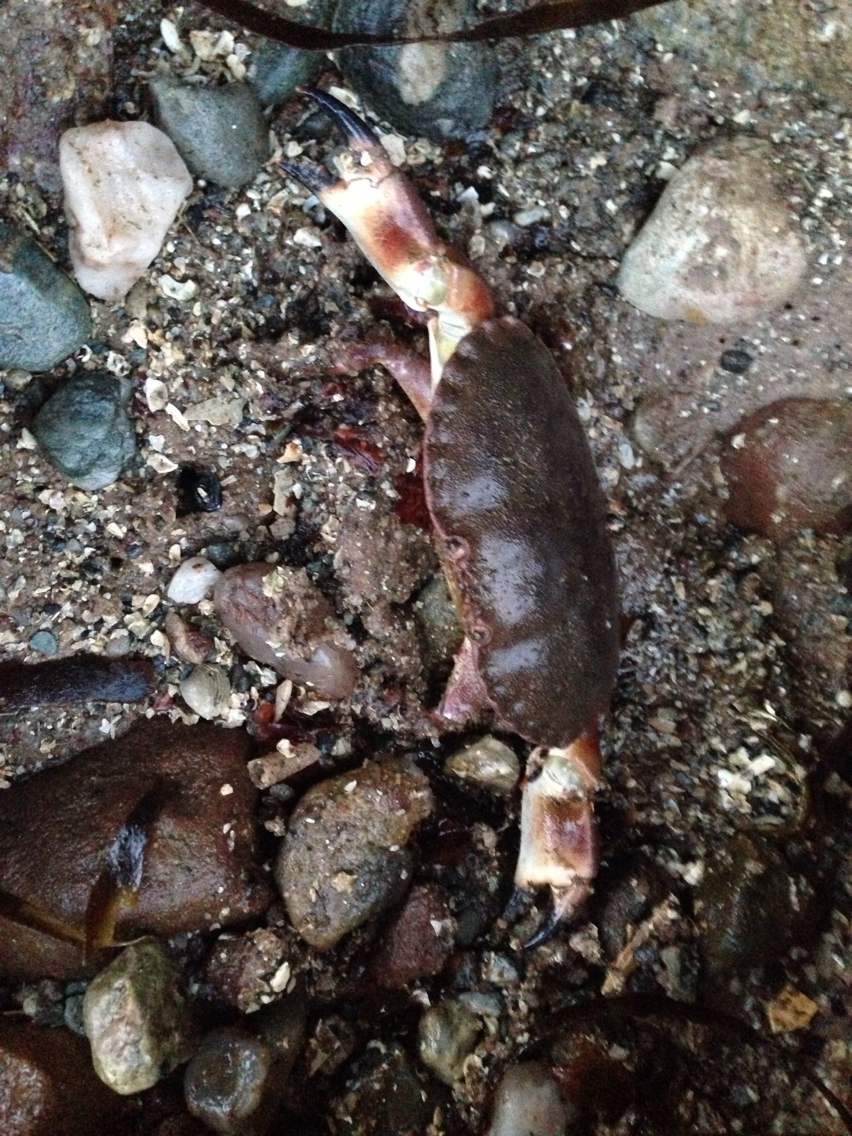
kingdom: Animalia
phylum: Arthropoda
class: Malacostraca
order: Decapoda
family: Cancridae
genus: Cancer
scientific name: Cancer pagurus
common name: Edible crab
